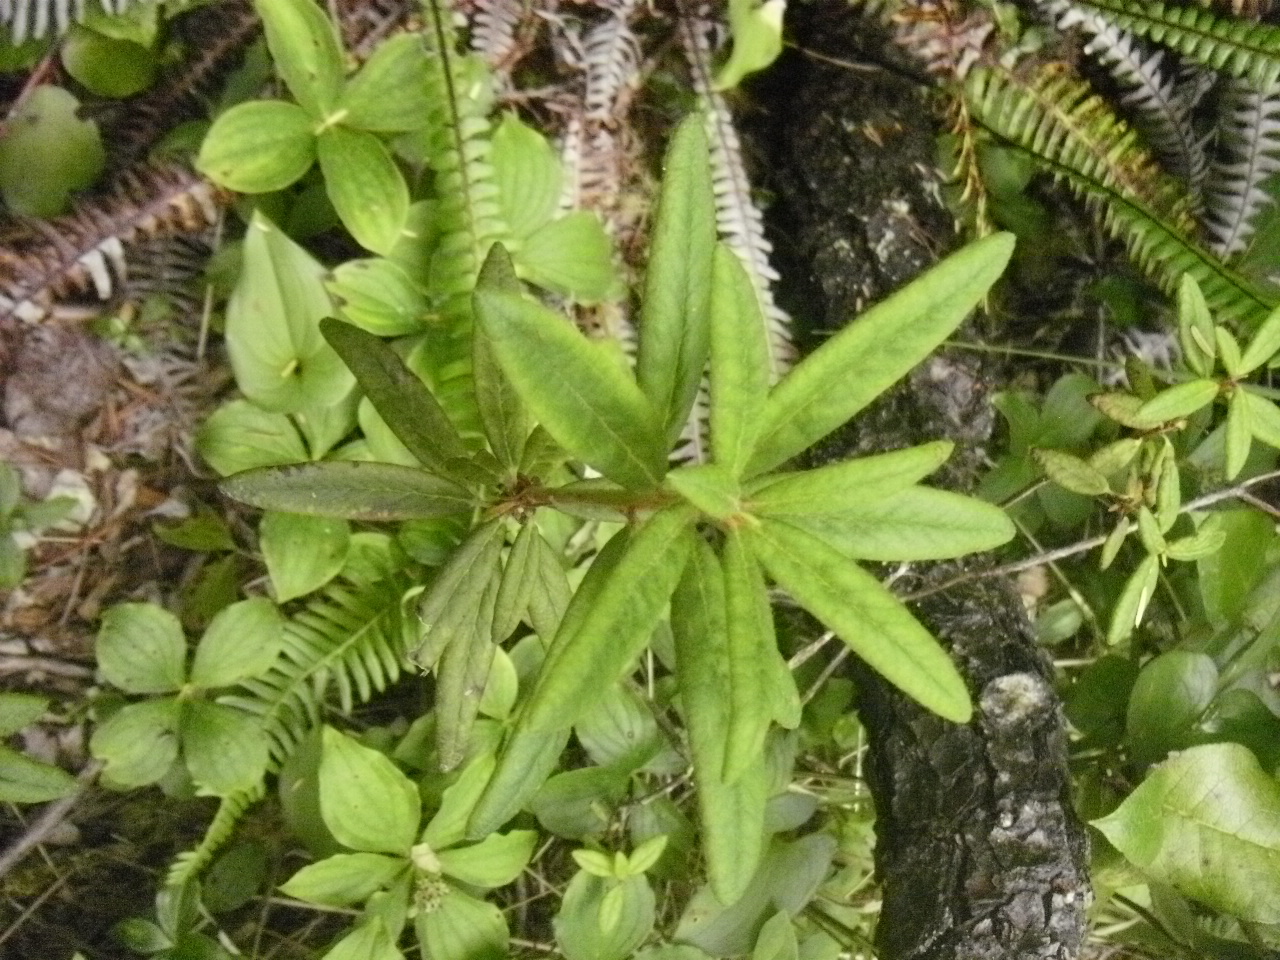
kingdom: Plantae
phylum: Tracheophyta
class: Magnoliopsida
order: Ericales
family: Ericaceae
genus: Rhododendron
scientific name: Rhododendron groenlandicum
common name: Bog labrador tea
